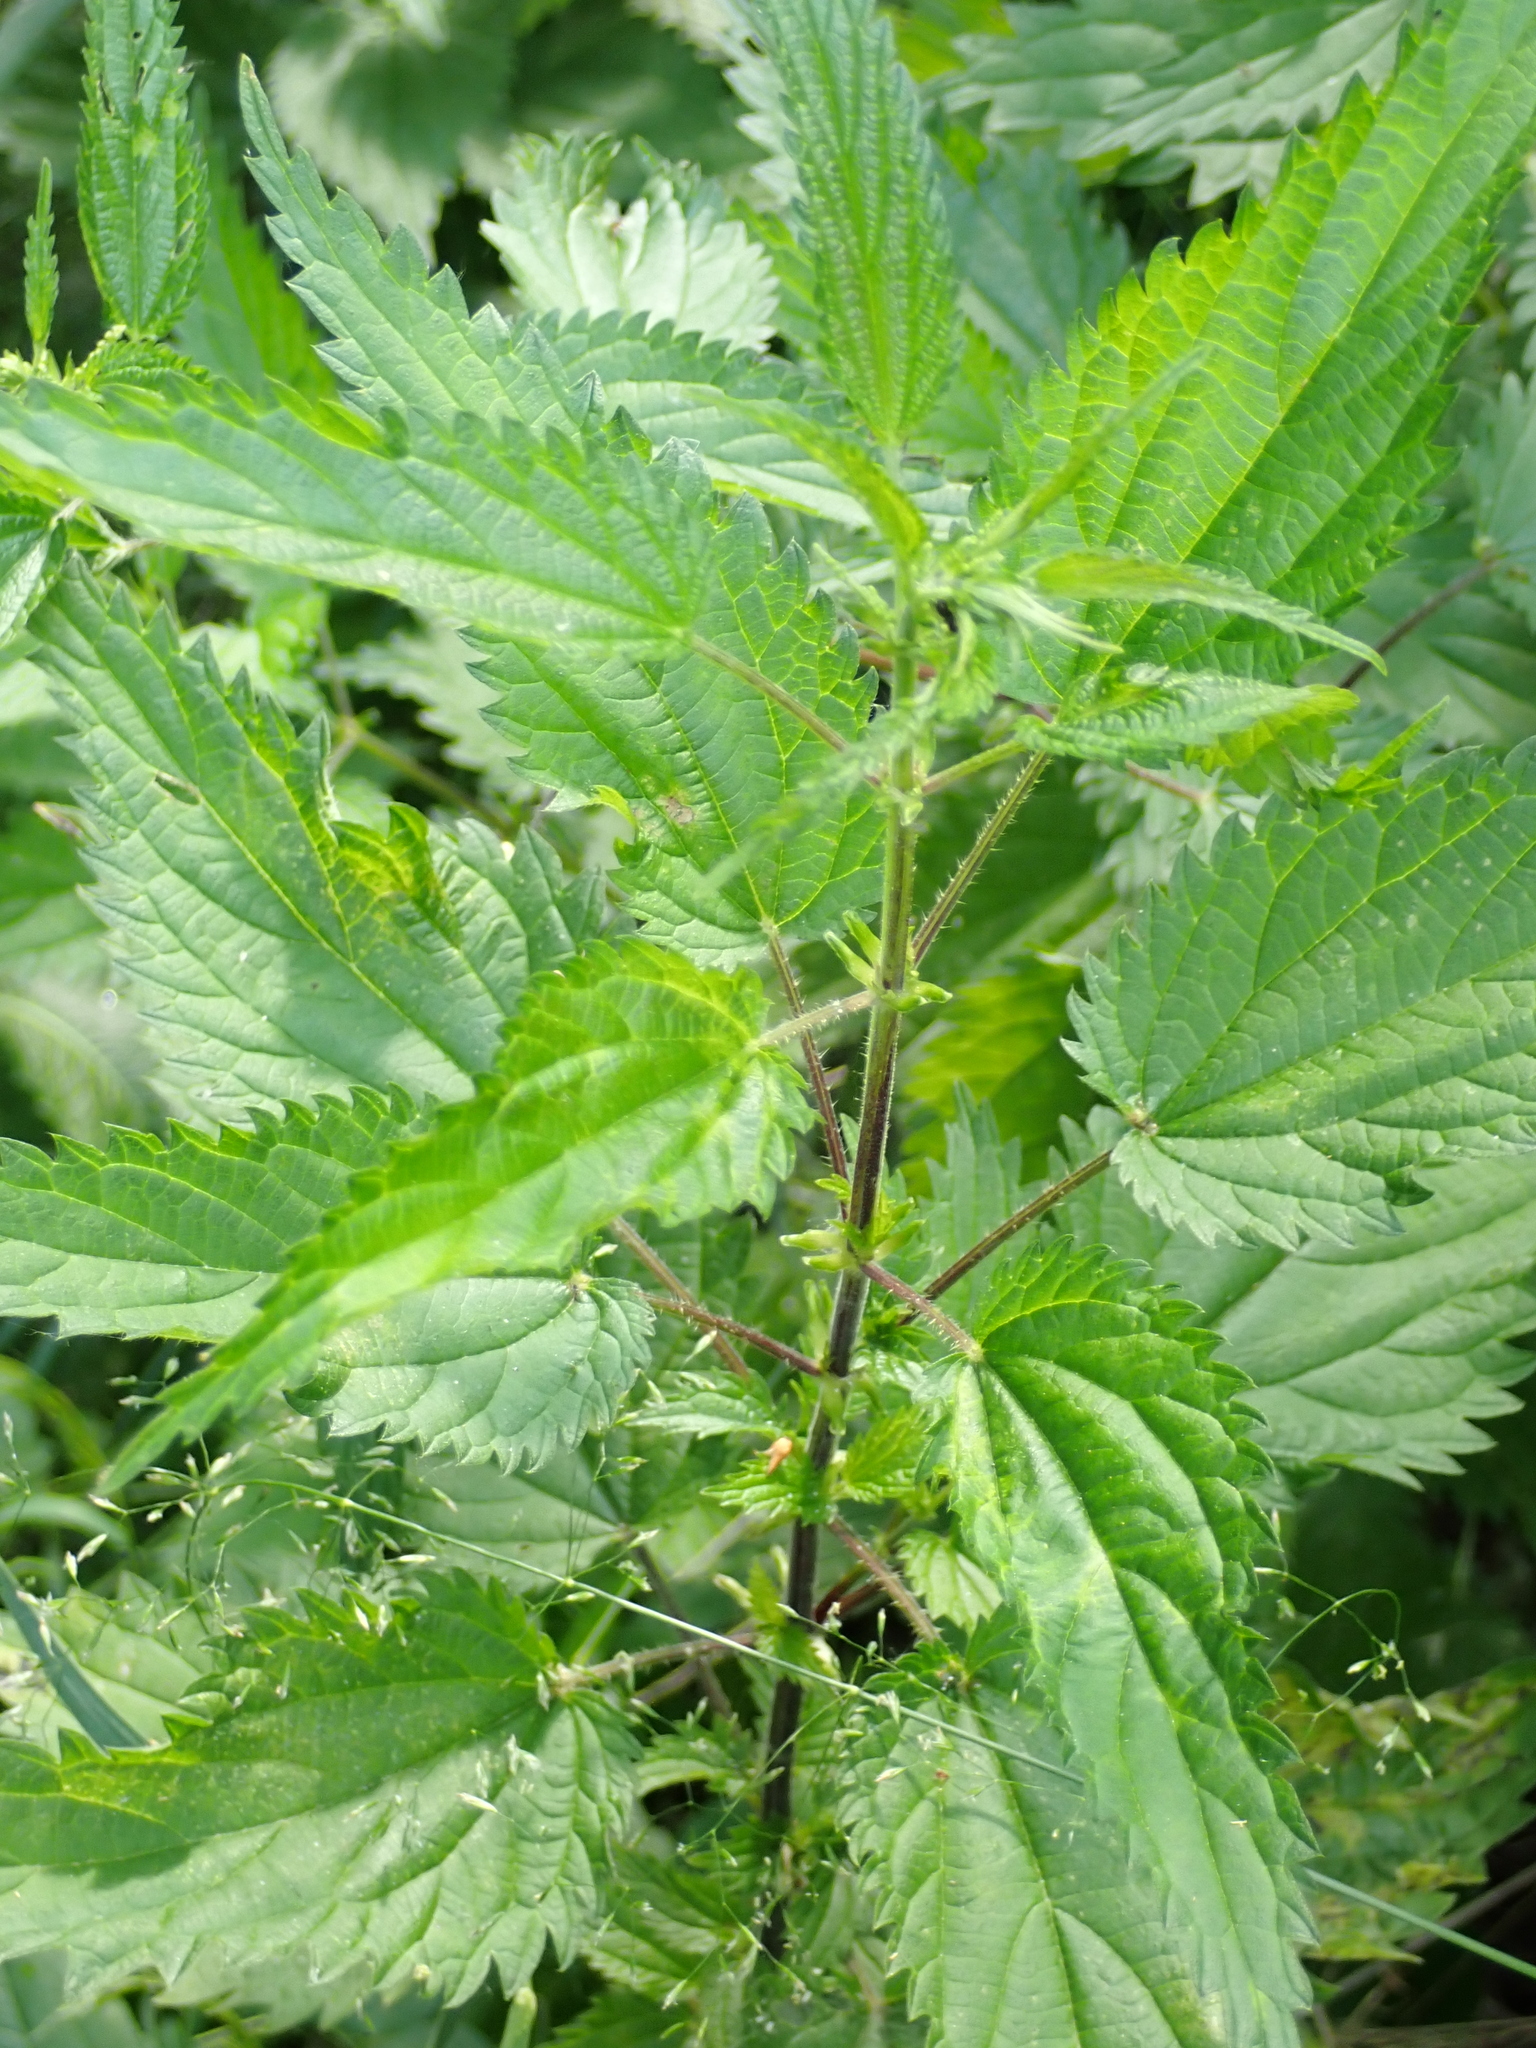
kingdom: Plantae
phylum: Tracheophyta
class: Magnoliopsida
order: Rosales
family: Urticaceae
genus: Urtica
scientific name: Urtica dioica
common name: Common nettle
